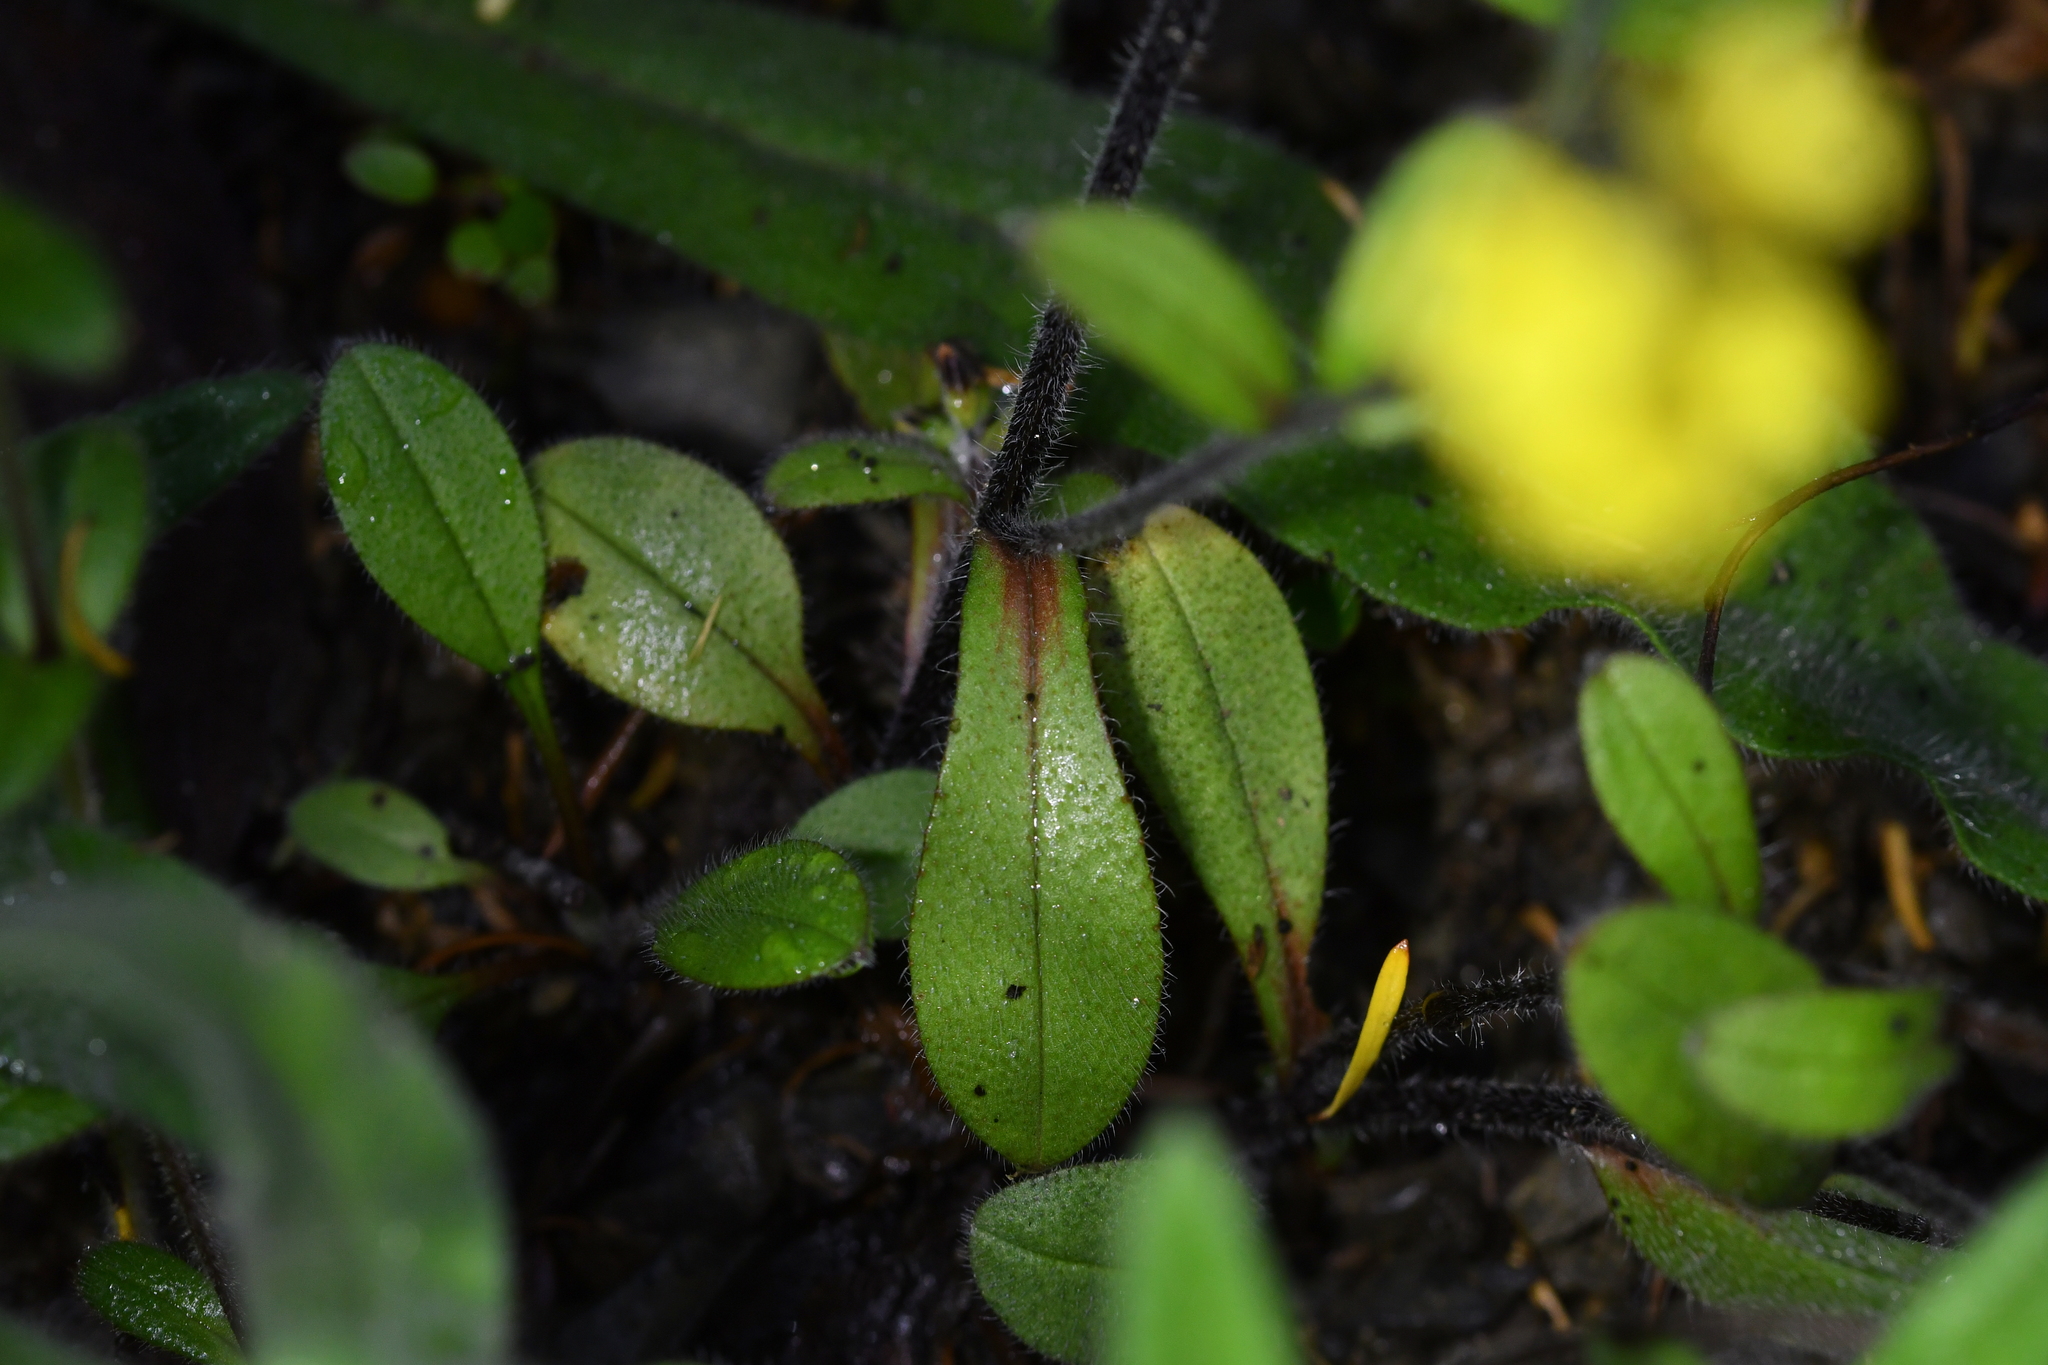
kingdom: Plantae
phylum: Tracheophyta
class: Magnoliopsida
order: Boraginales
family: Boraginaceae
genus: Myosotis
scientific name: Myosotis australis
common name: Australian forget-me-not
